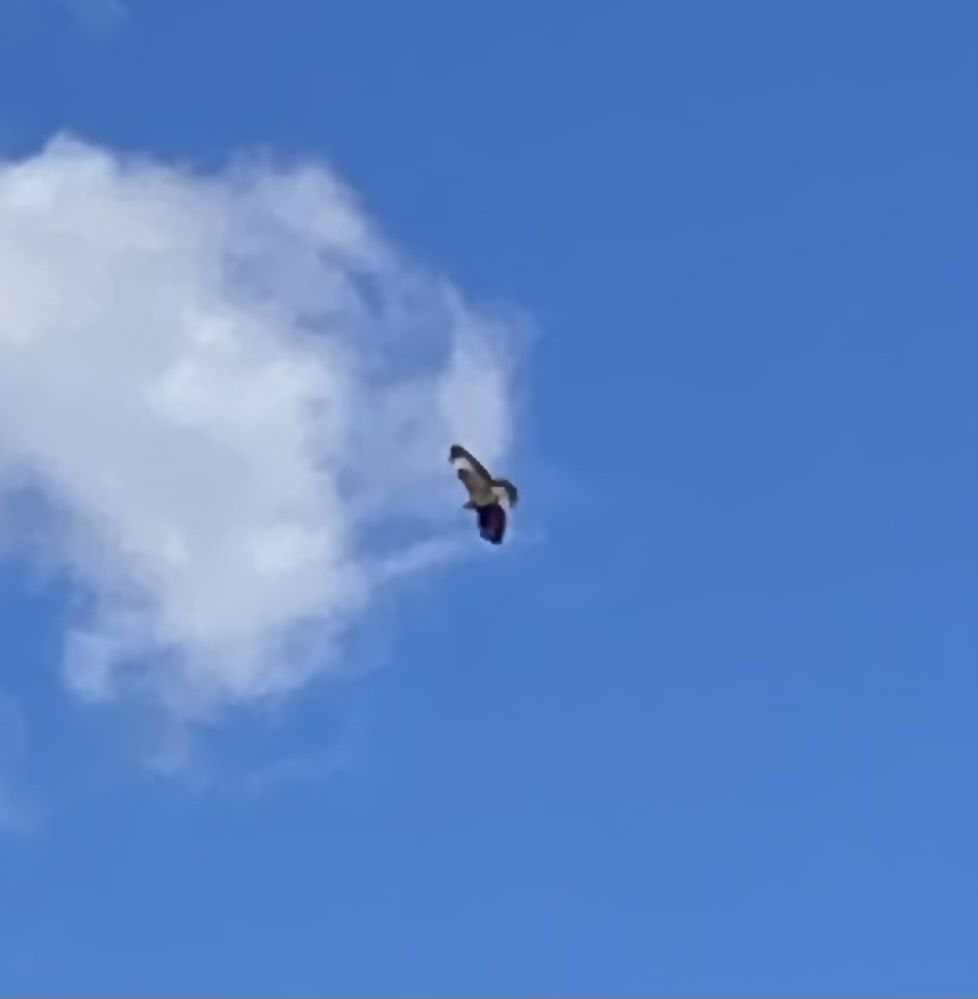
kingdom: Animalia
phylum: Chordata
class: Aves
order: Accipitriformes
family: Accipitridae
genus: Buteo
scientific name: Buteo buteo
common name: Common buzzard
